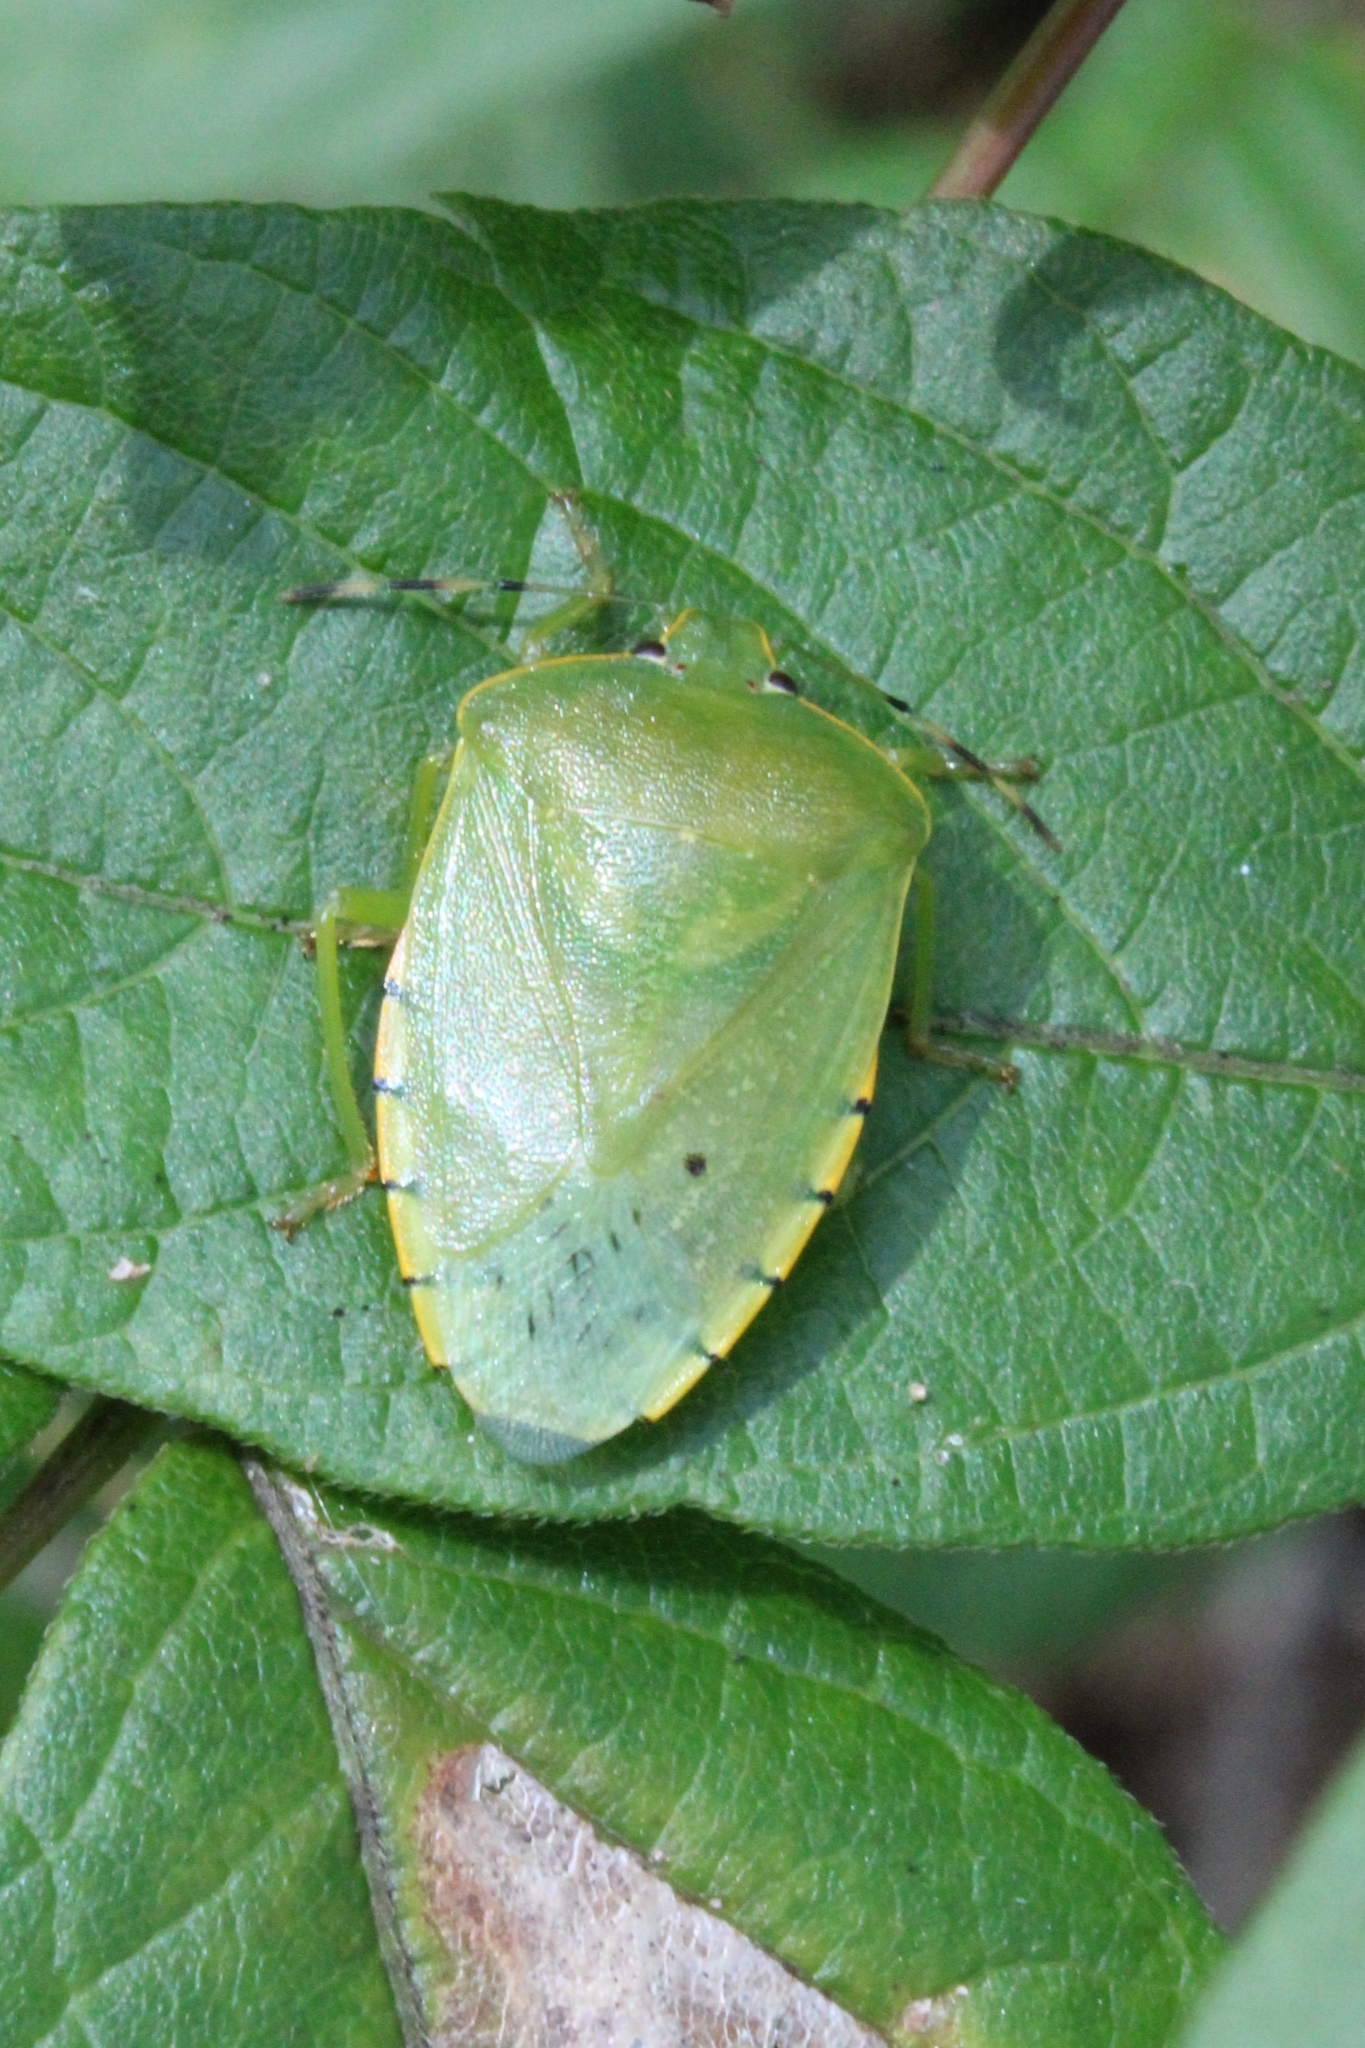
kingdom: Animalia
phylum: Arthropoda
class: Insecta
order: Hemiptera
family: Pentatomidae
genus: Chinavia
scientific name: Chinavia hilaris
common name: Green stink bug
